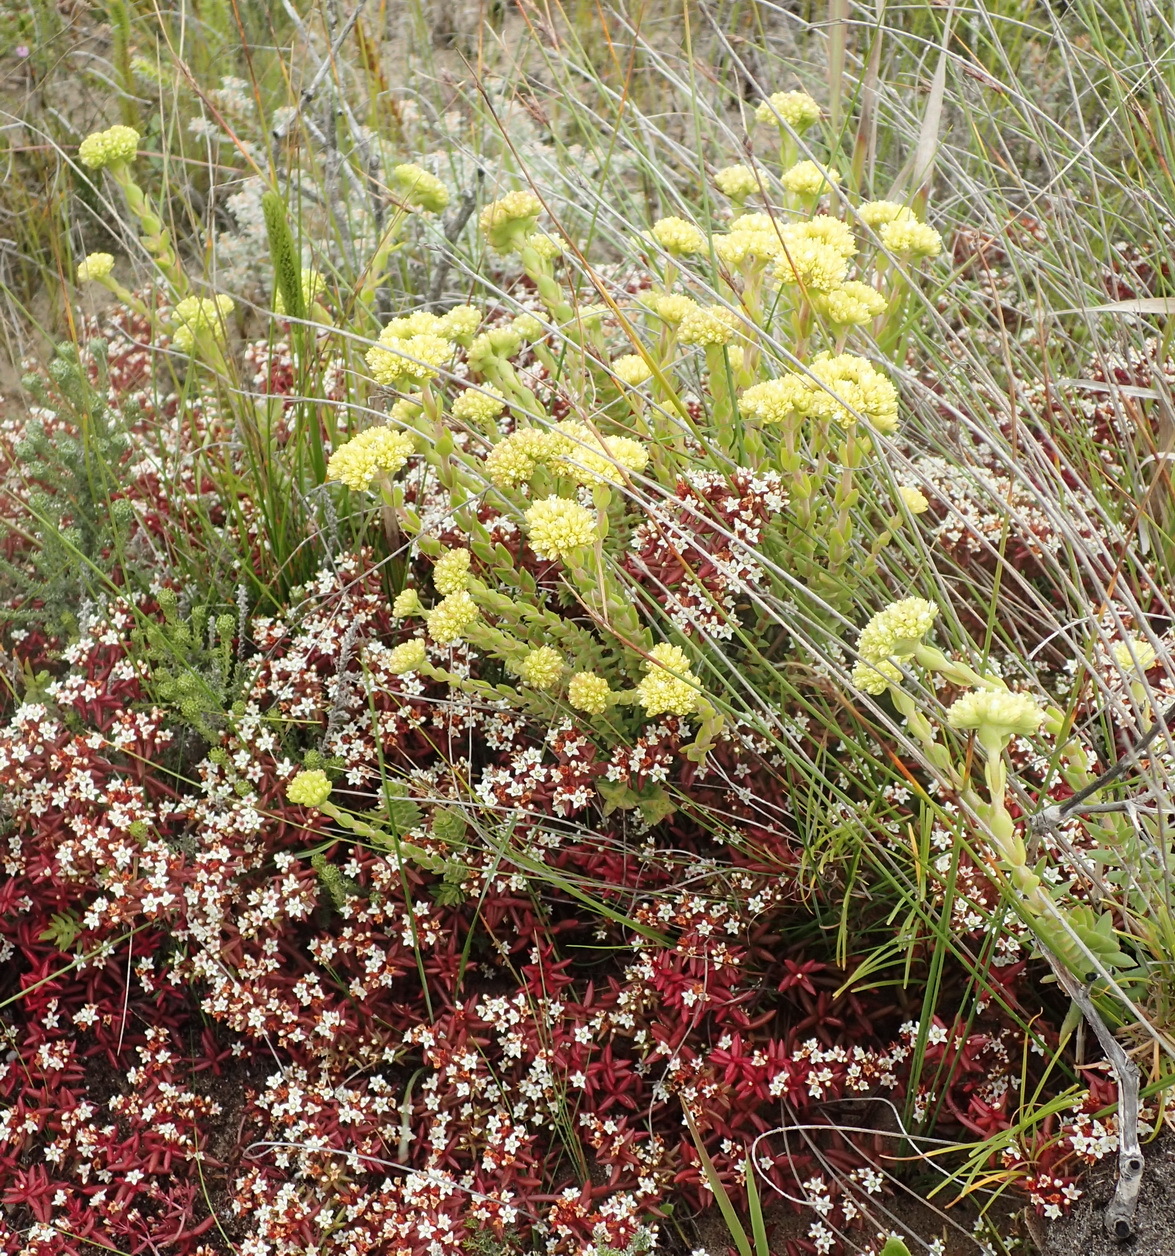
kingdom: Plantae
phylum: Tracheophyta
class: Magnoliopsida
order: Saxifragales
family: Crassulaceae
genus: Crassula
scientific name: Crassula subulata
